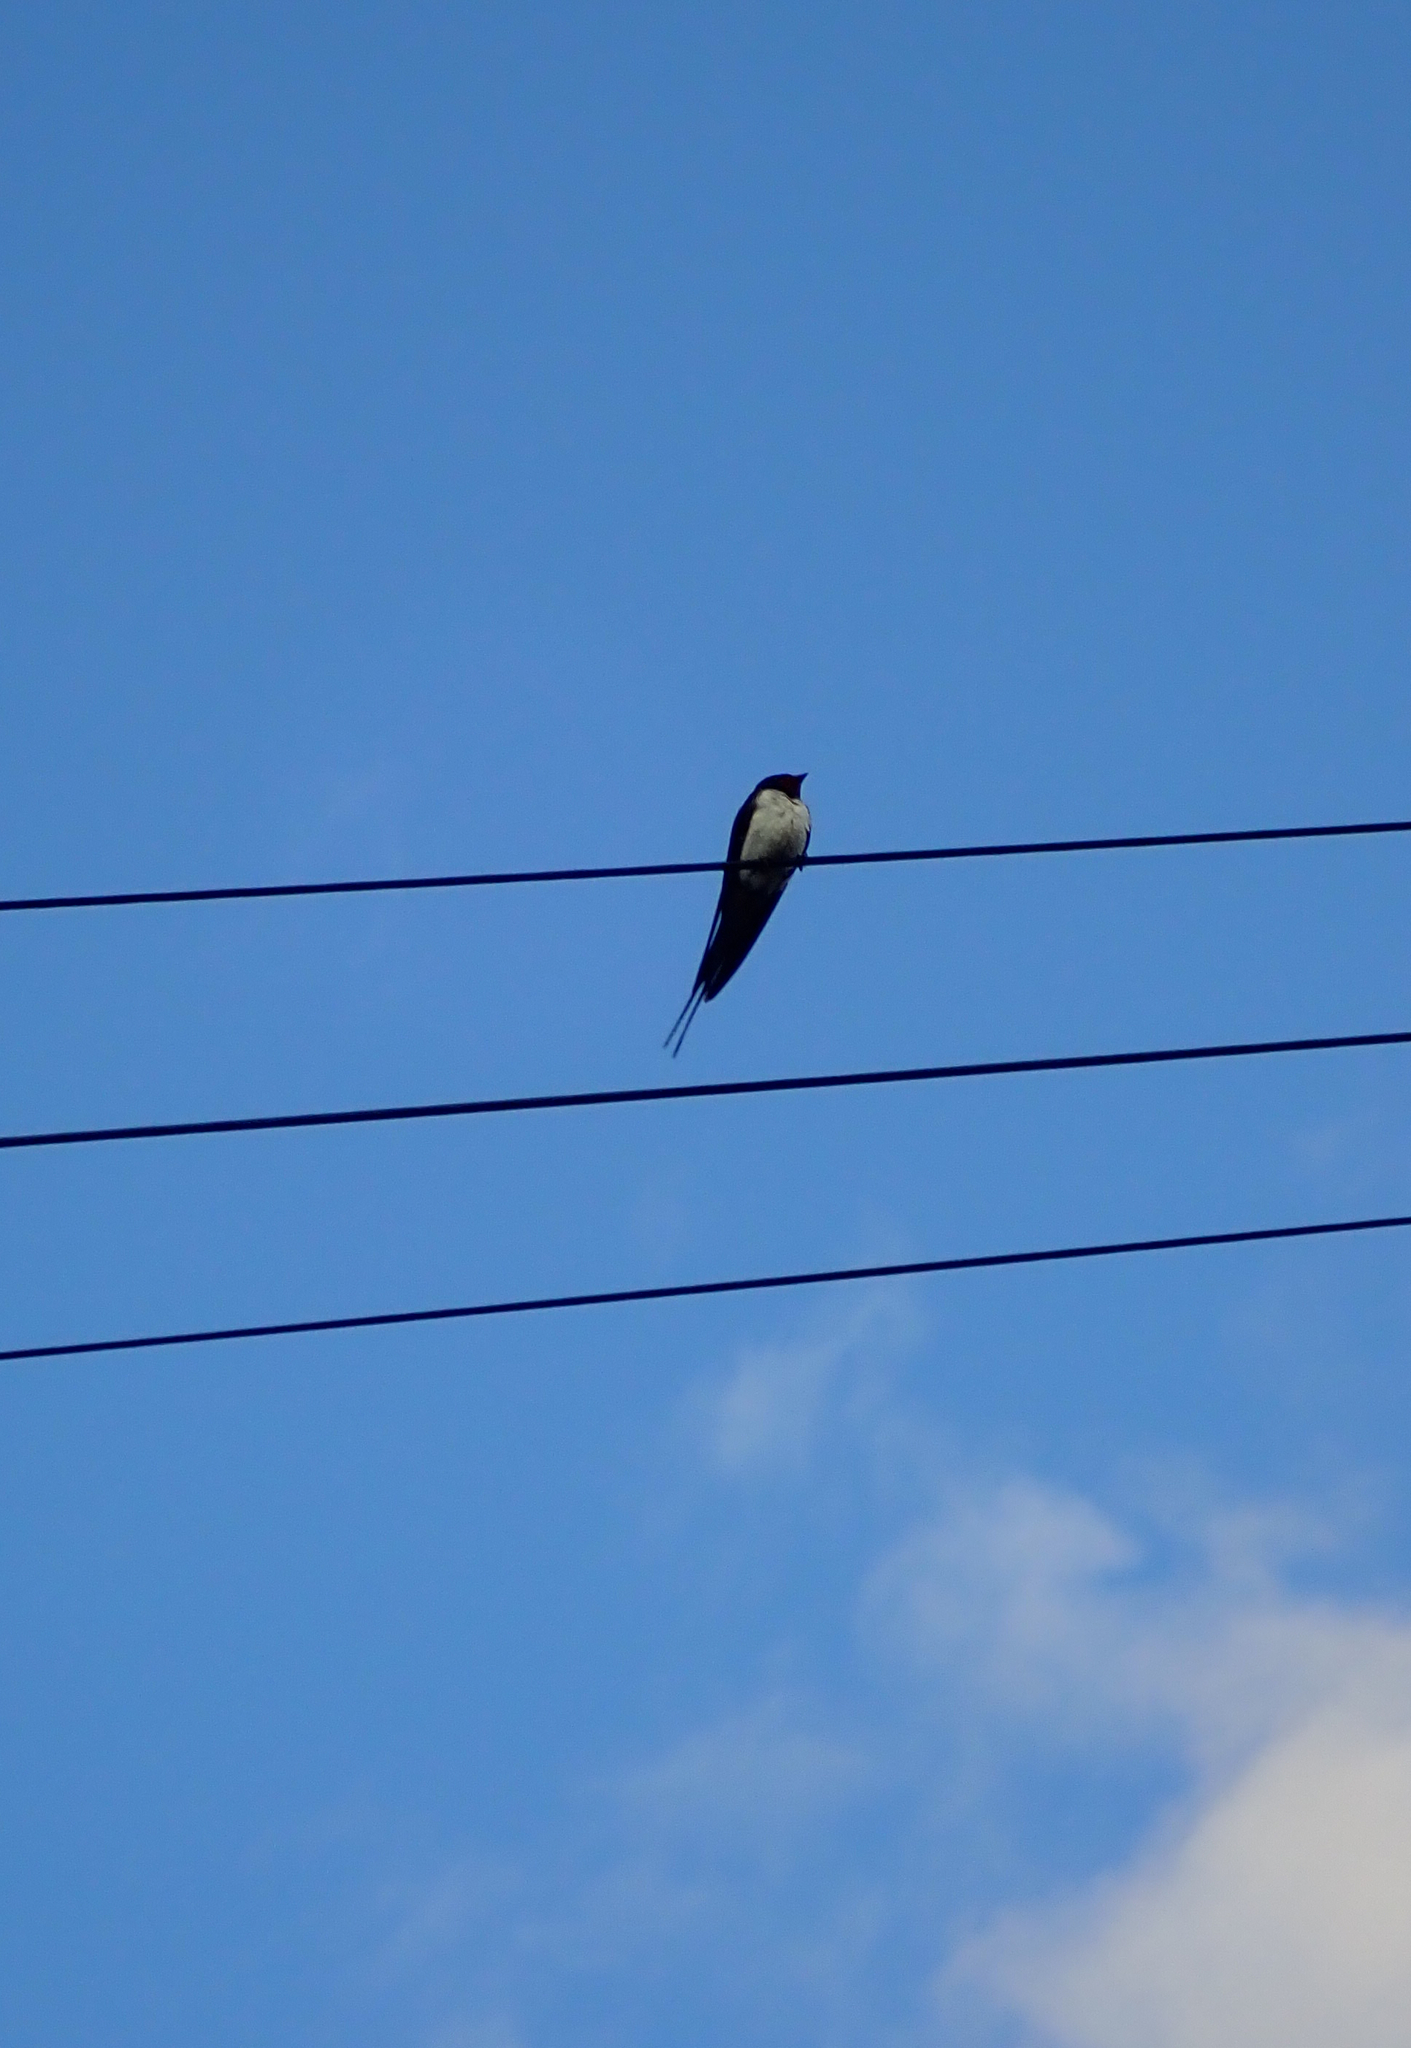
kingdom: Animalia
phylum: Chordata
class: Aves
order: Passeriformes
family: Hirundinidae
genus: Hirundo
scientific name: Hirundo rustica
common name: Barn swallow
